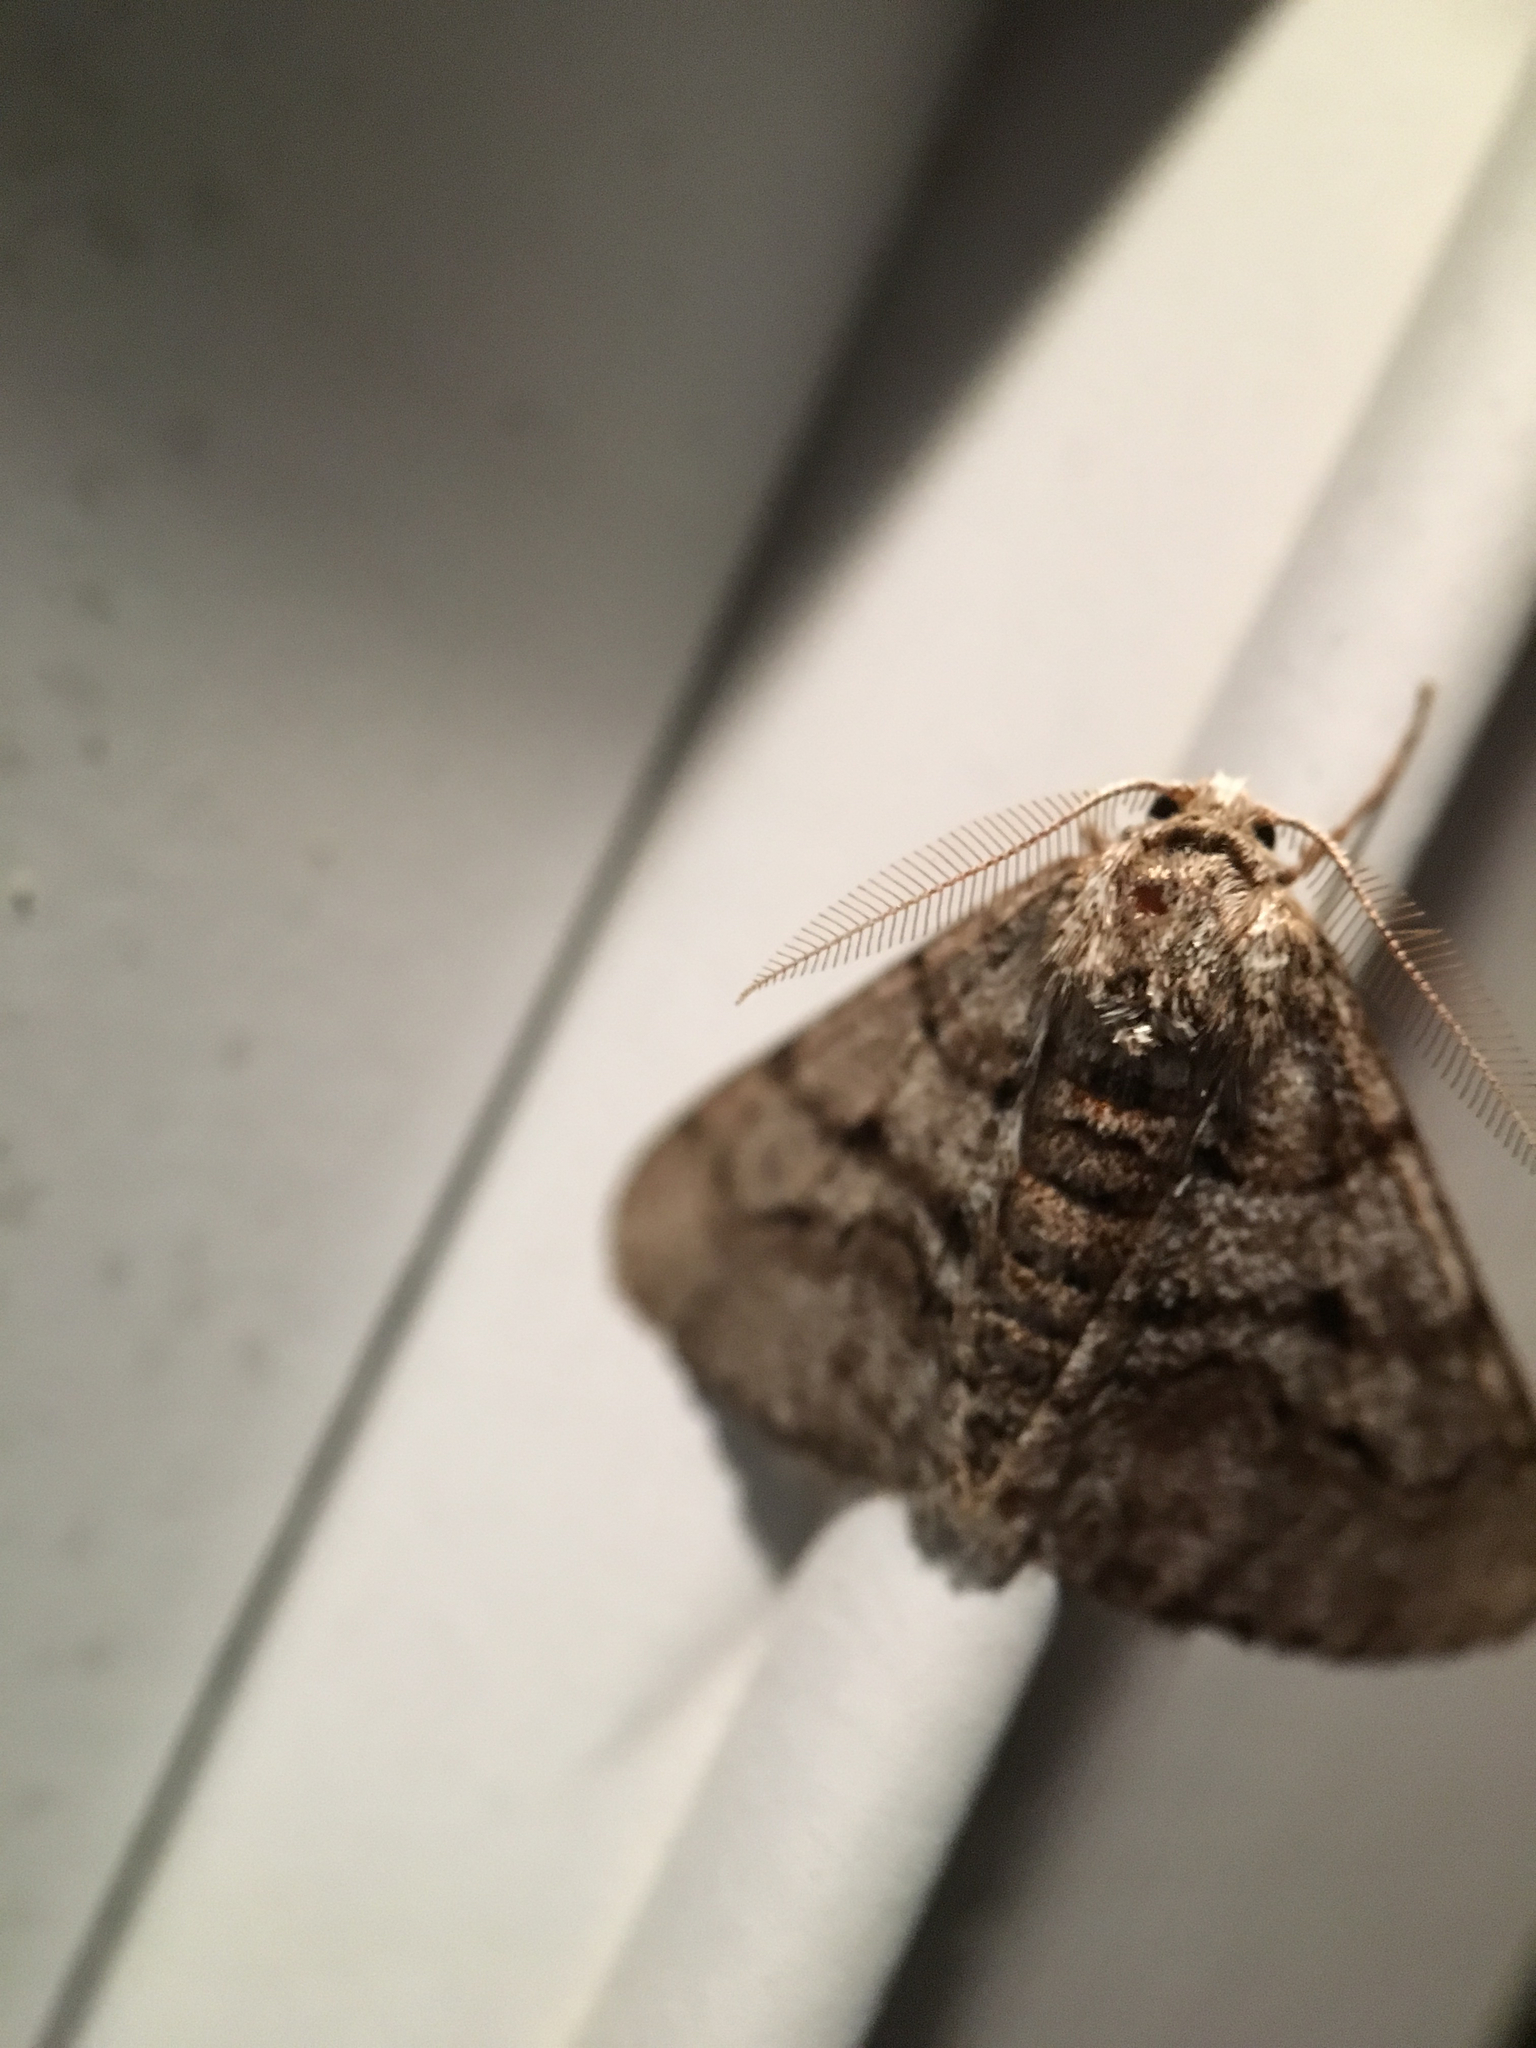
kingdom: Animalia
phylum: Arthropoda
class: Insecta
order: Lepidoptera
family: Geometridae
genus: Phigalia
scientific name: Phigalia titea
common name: Spiny looper
